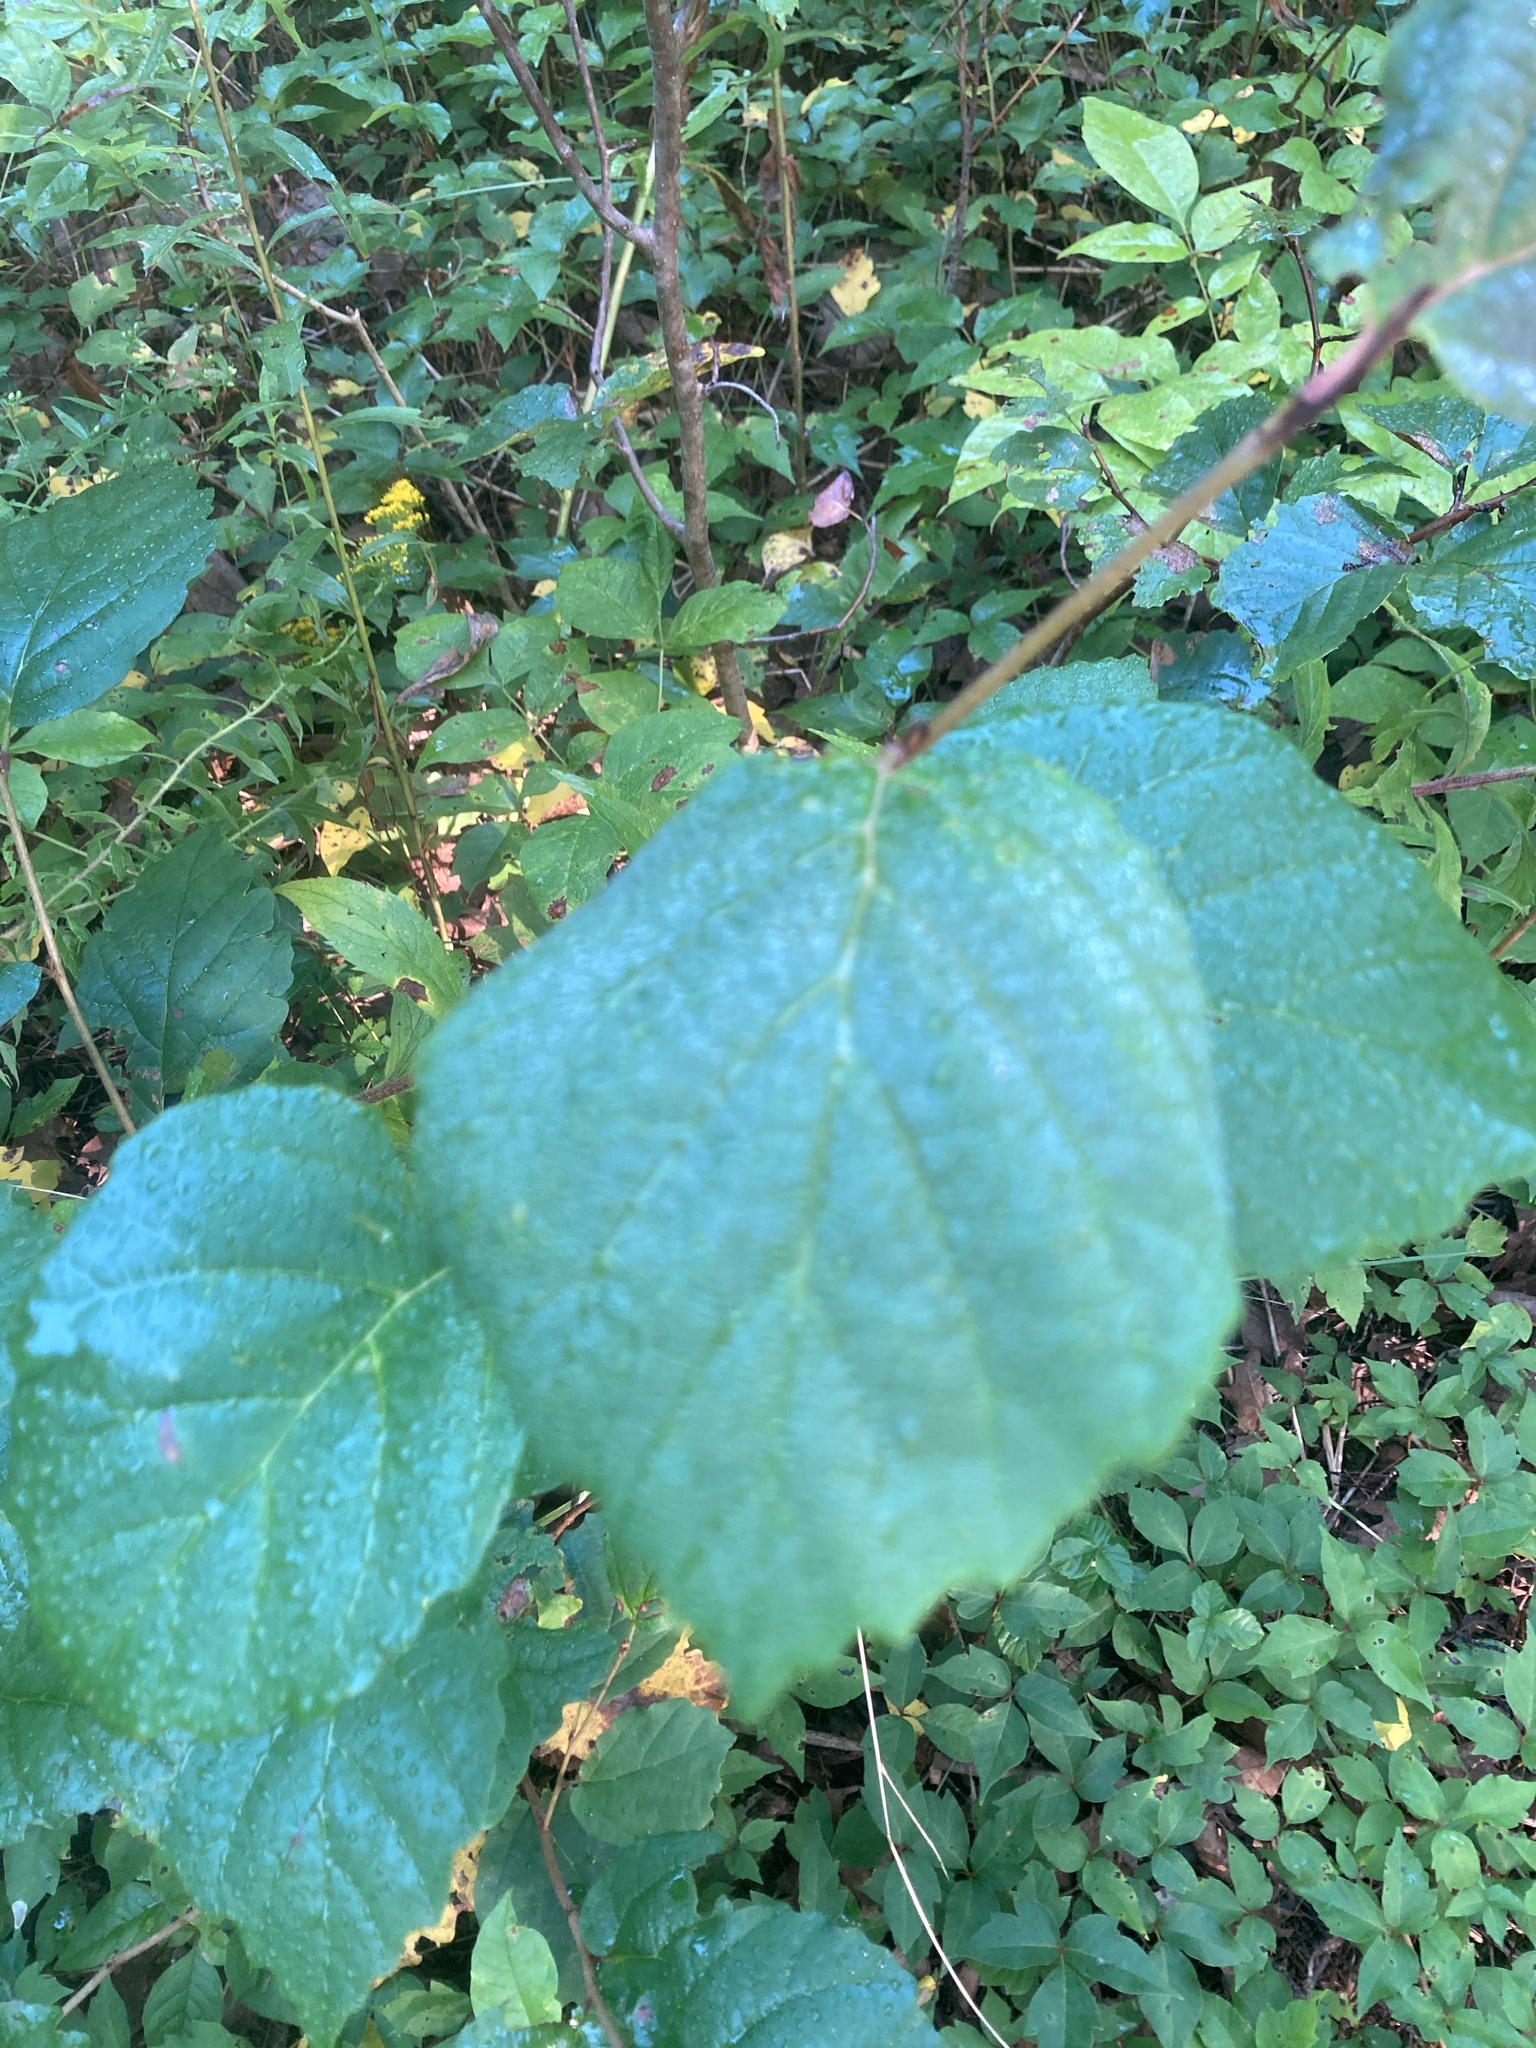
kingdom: Plantae
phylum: Tracheophyta
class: Magnoliopsida
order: Saxifragales
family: Hamamelidaceae
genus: Hamamelis
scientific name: Hamamelis virginiana
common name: Witch-hazel
